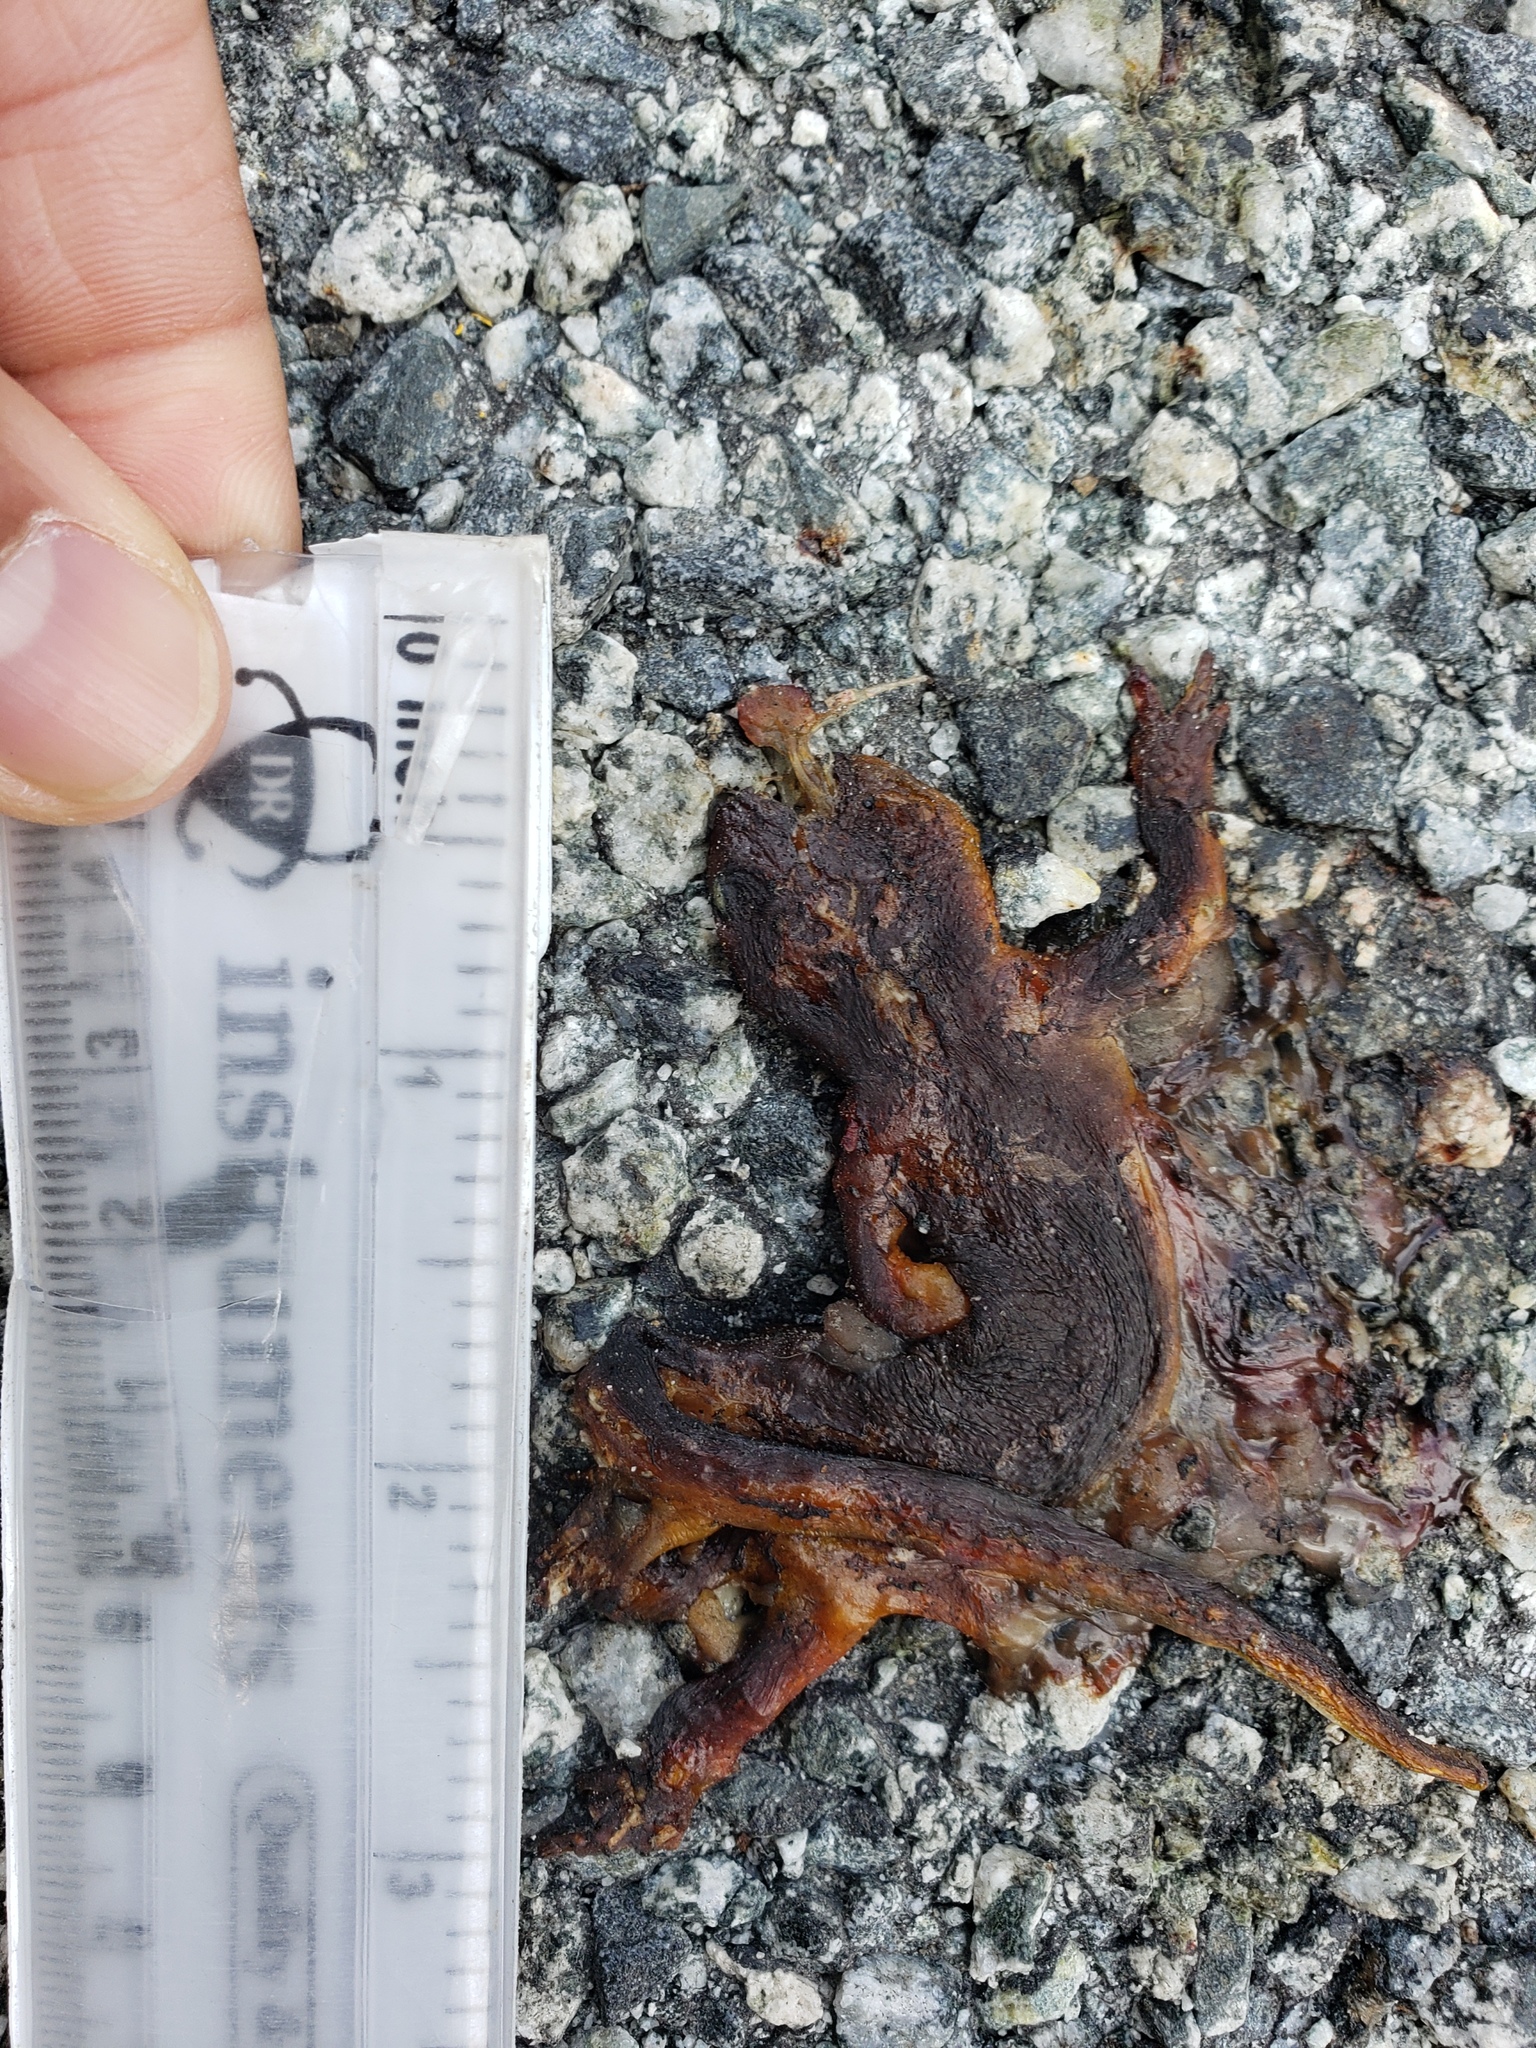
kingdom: Animalia
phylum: Chordata
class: Amphibia
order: Caudata
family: Salamandridae
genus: Taricha
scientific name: Taricha
